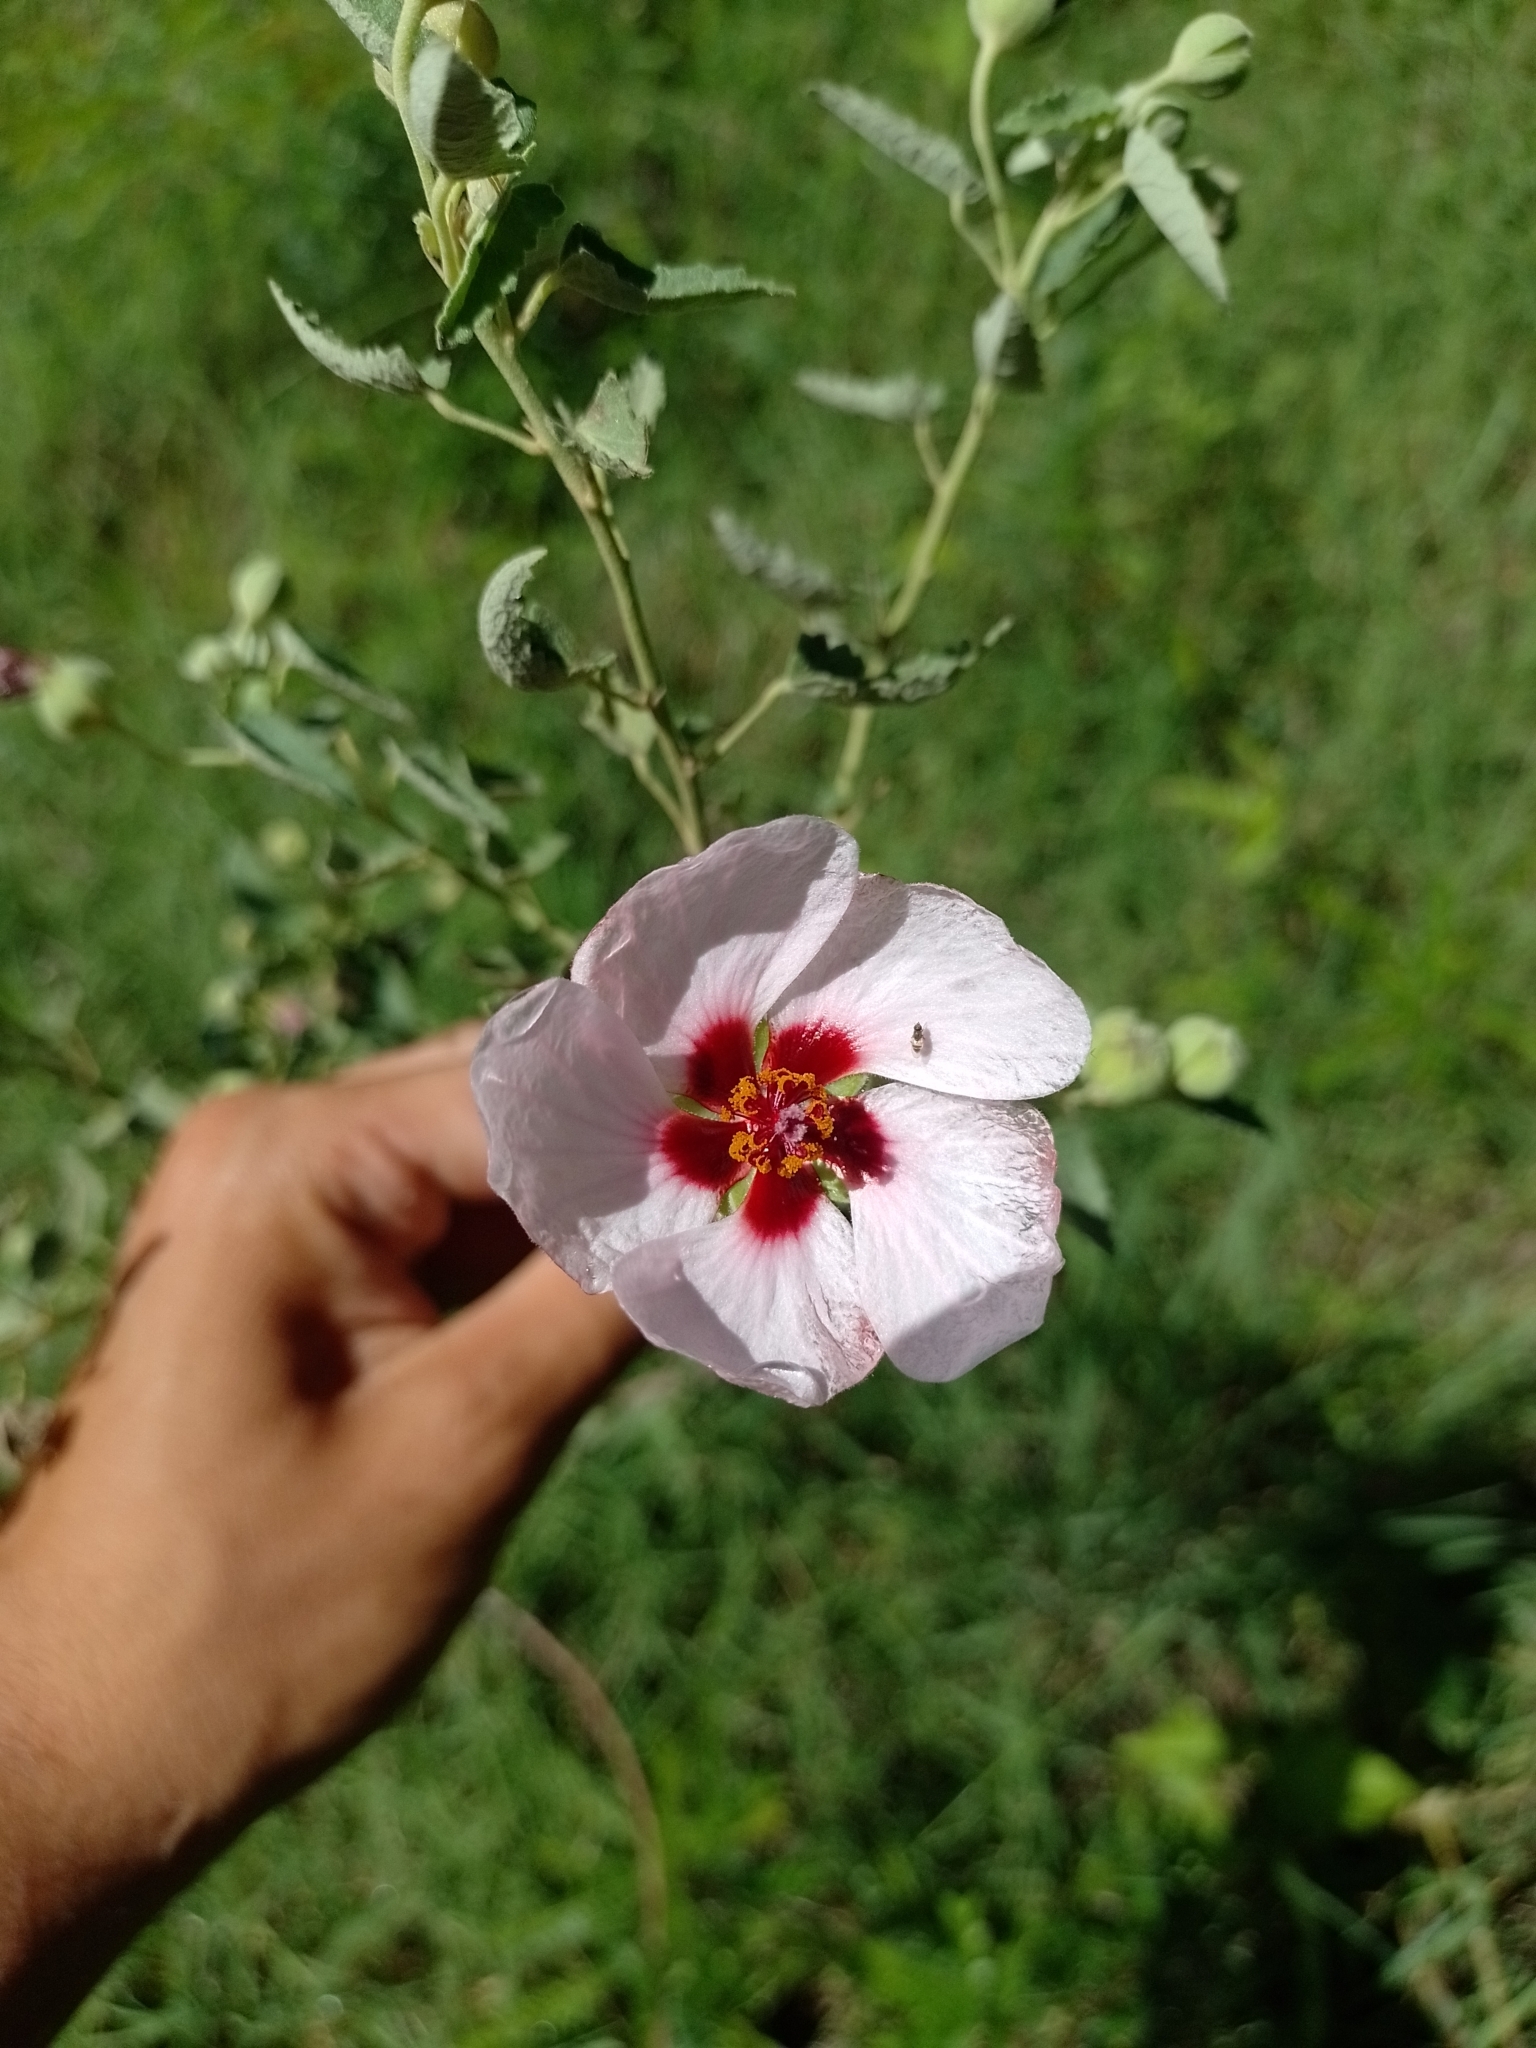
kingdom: Plantae
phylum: Tracheophyta
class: Magnoliopsida
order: Malvales
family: Malvaceae
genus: Pavonia
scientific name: Pavonia aurigloba
